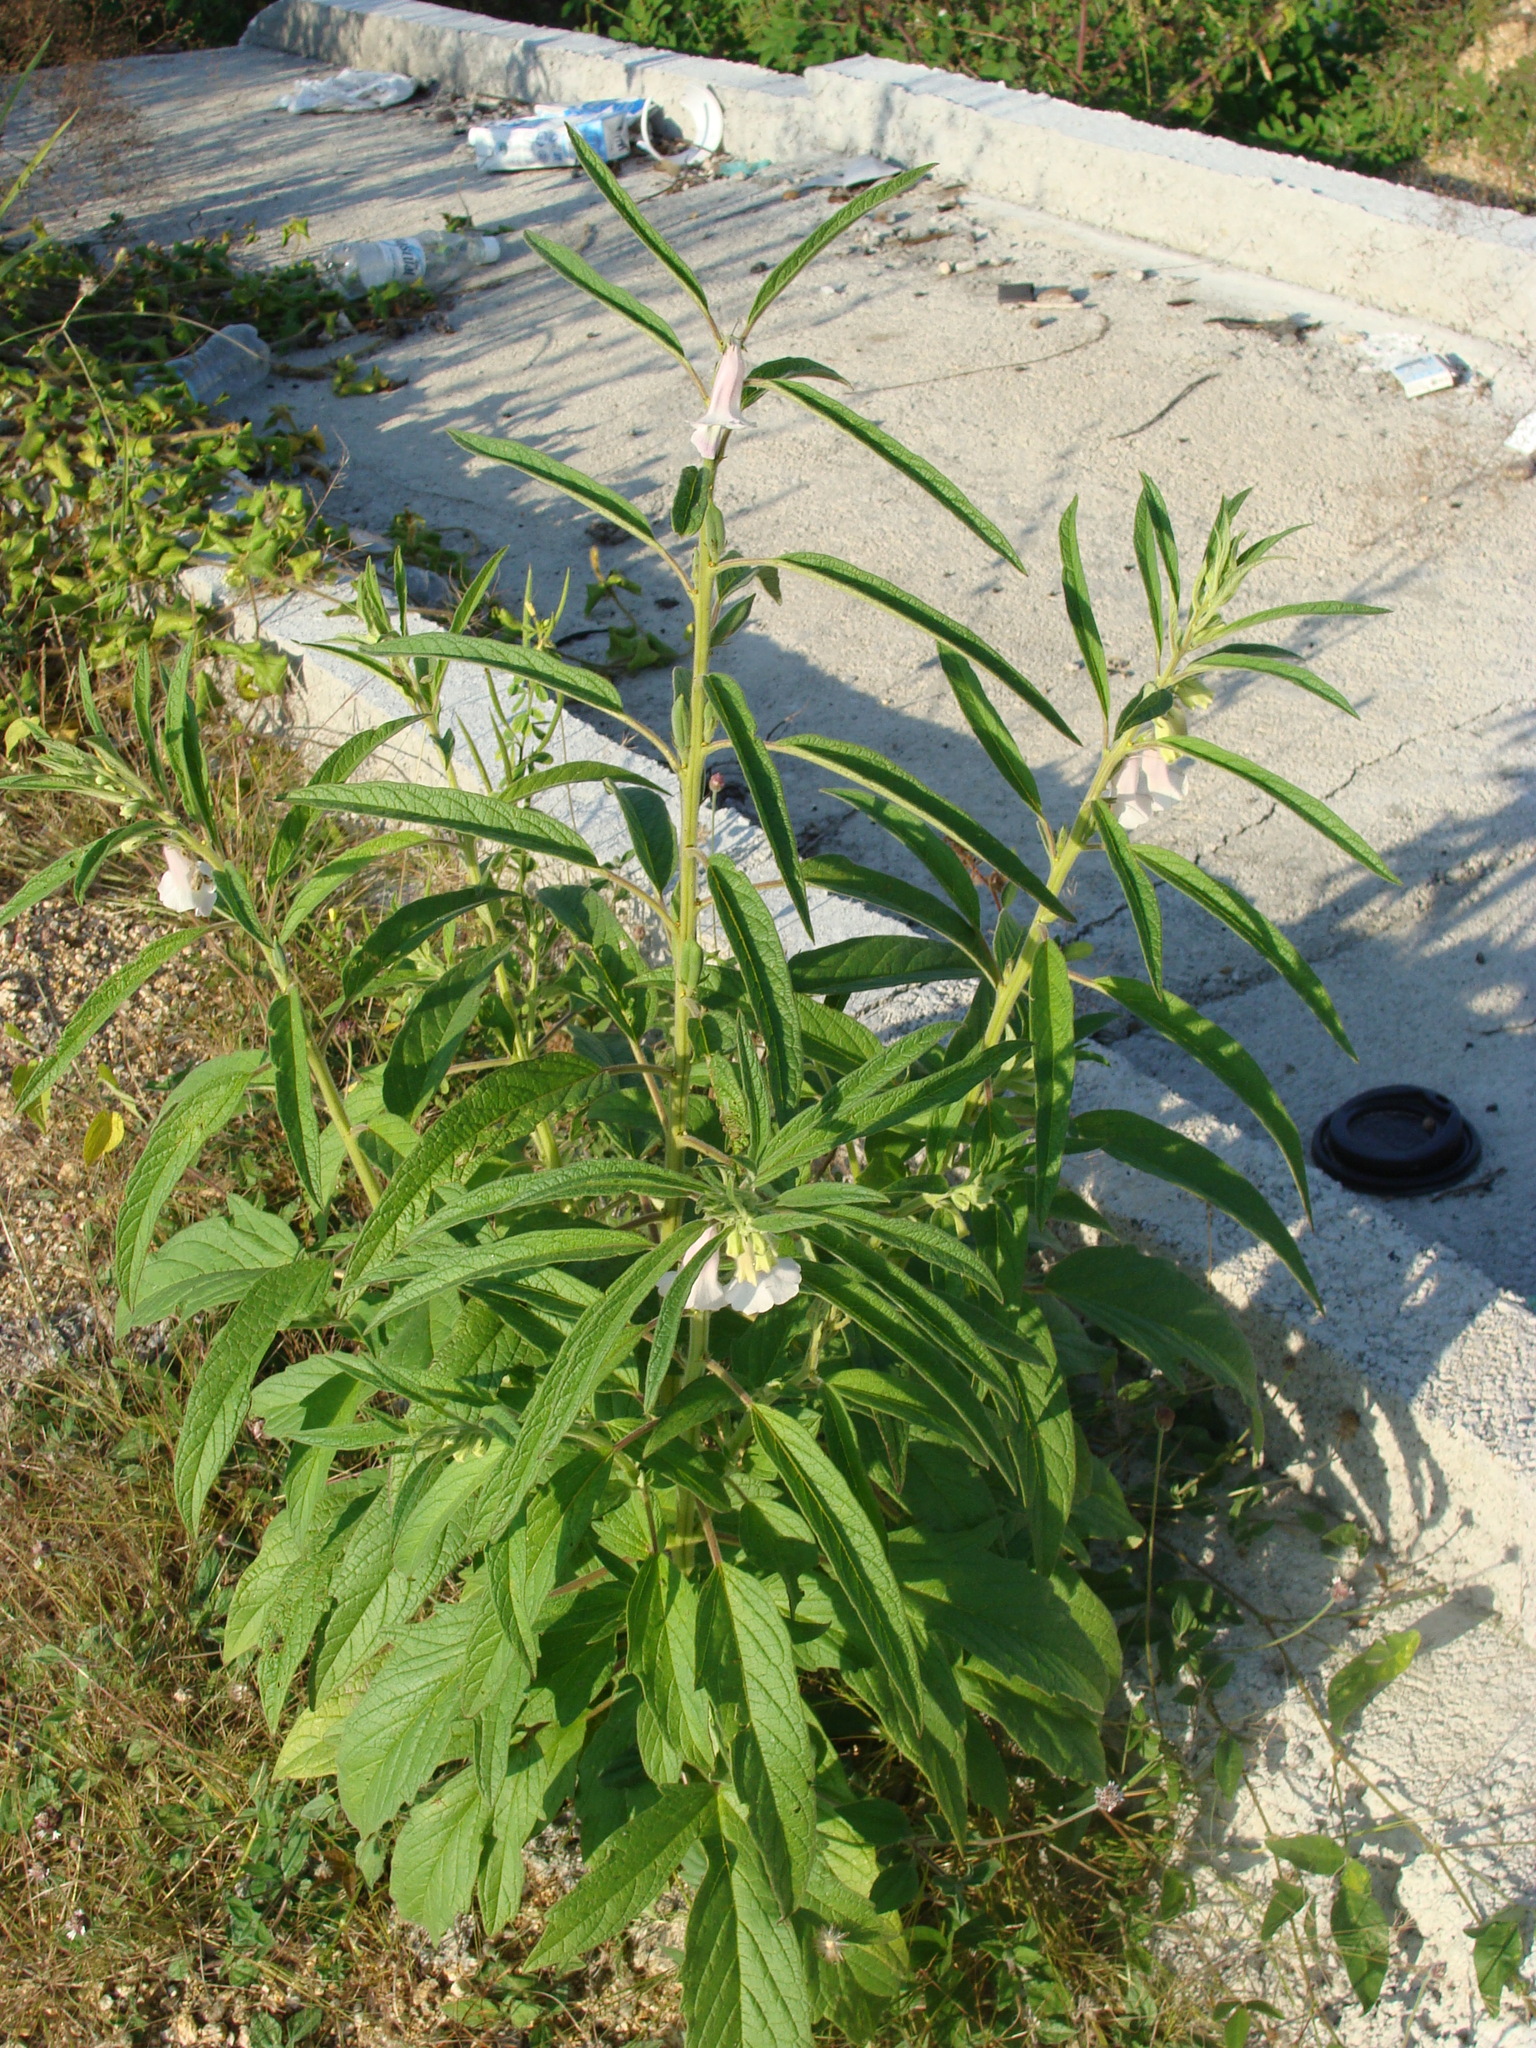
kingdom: Plantae
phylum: Tracheophyta
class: Magnoliopsida
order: Lamiales
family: Pedaliaceae
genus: Sesamum
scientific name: Sesamum indicum
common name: Sesame
